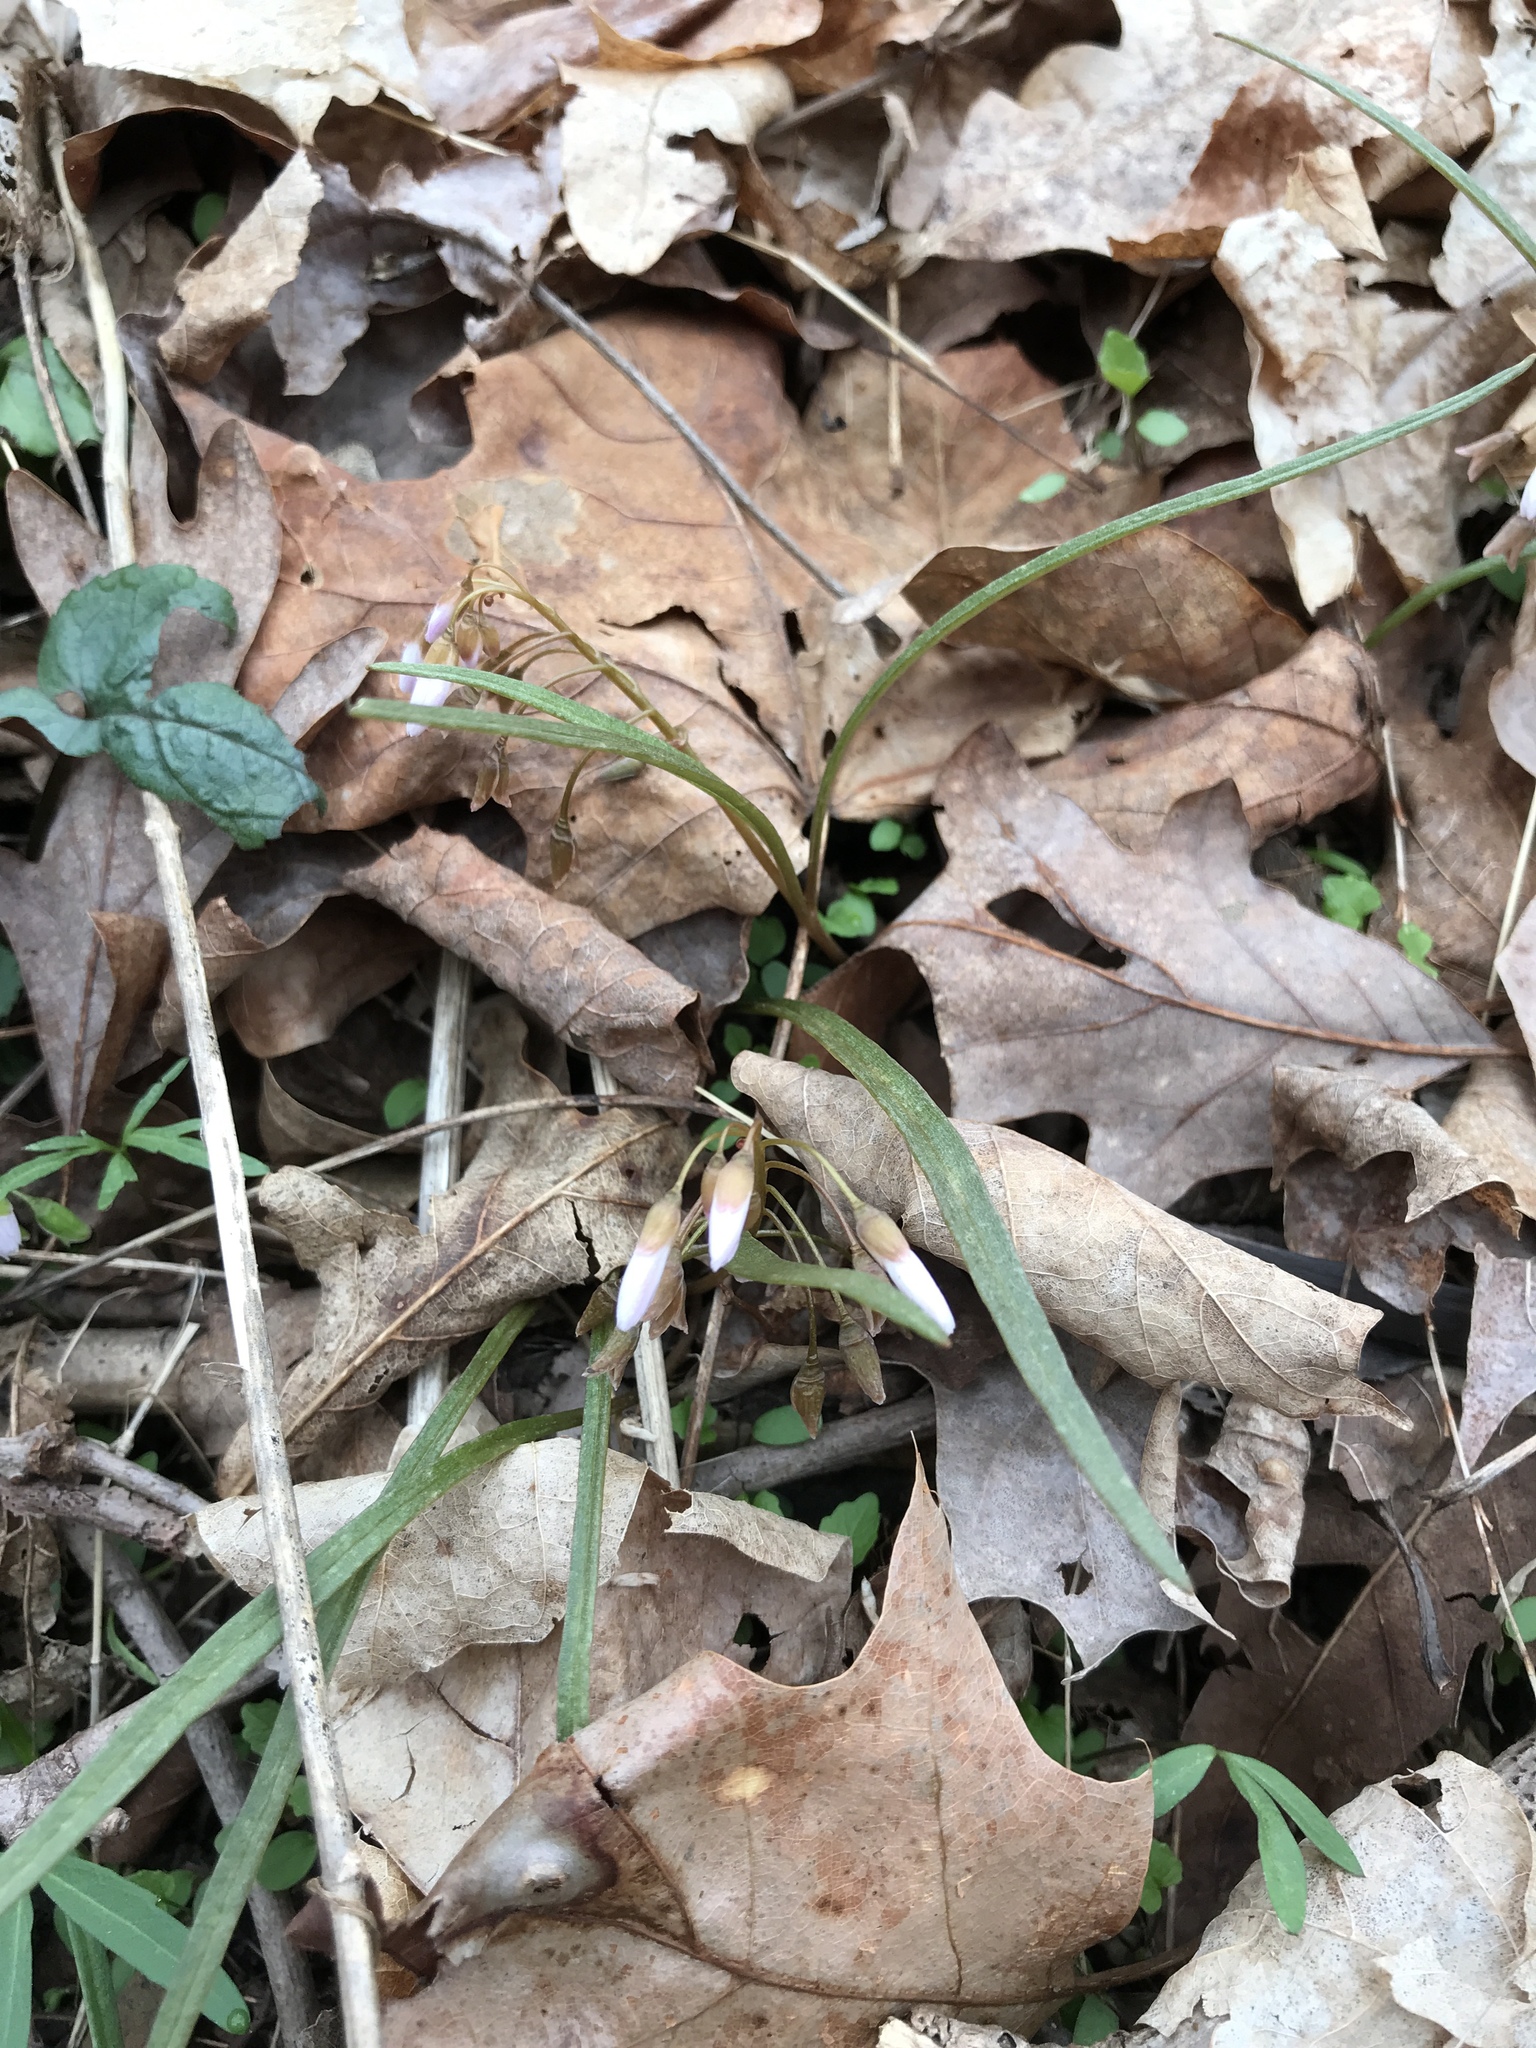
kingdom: Plantae
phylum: Tracheophyta
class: Magnoliopsida
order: Caryophyllales
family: Montiaceae
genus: Claytonia
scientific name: Claytonia virginica
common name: Virginia springbeauty
